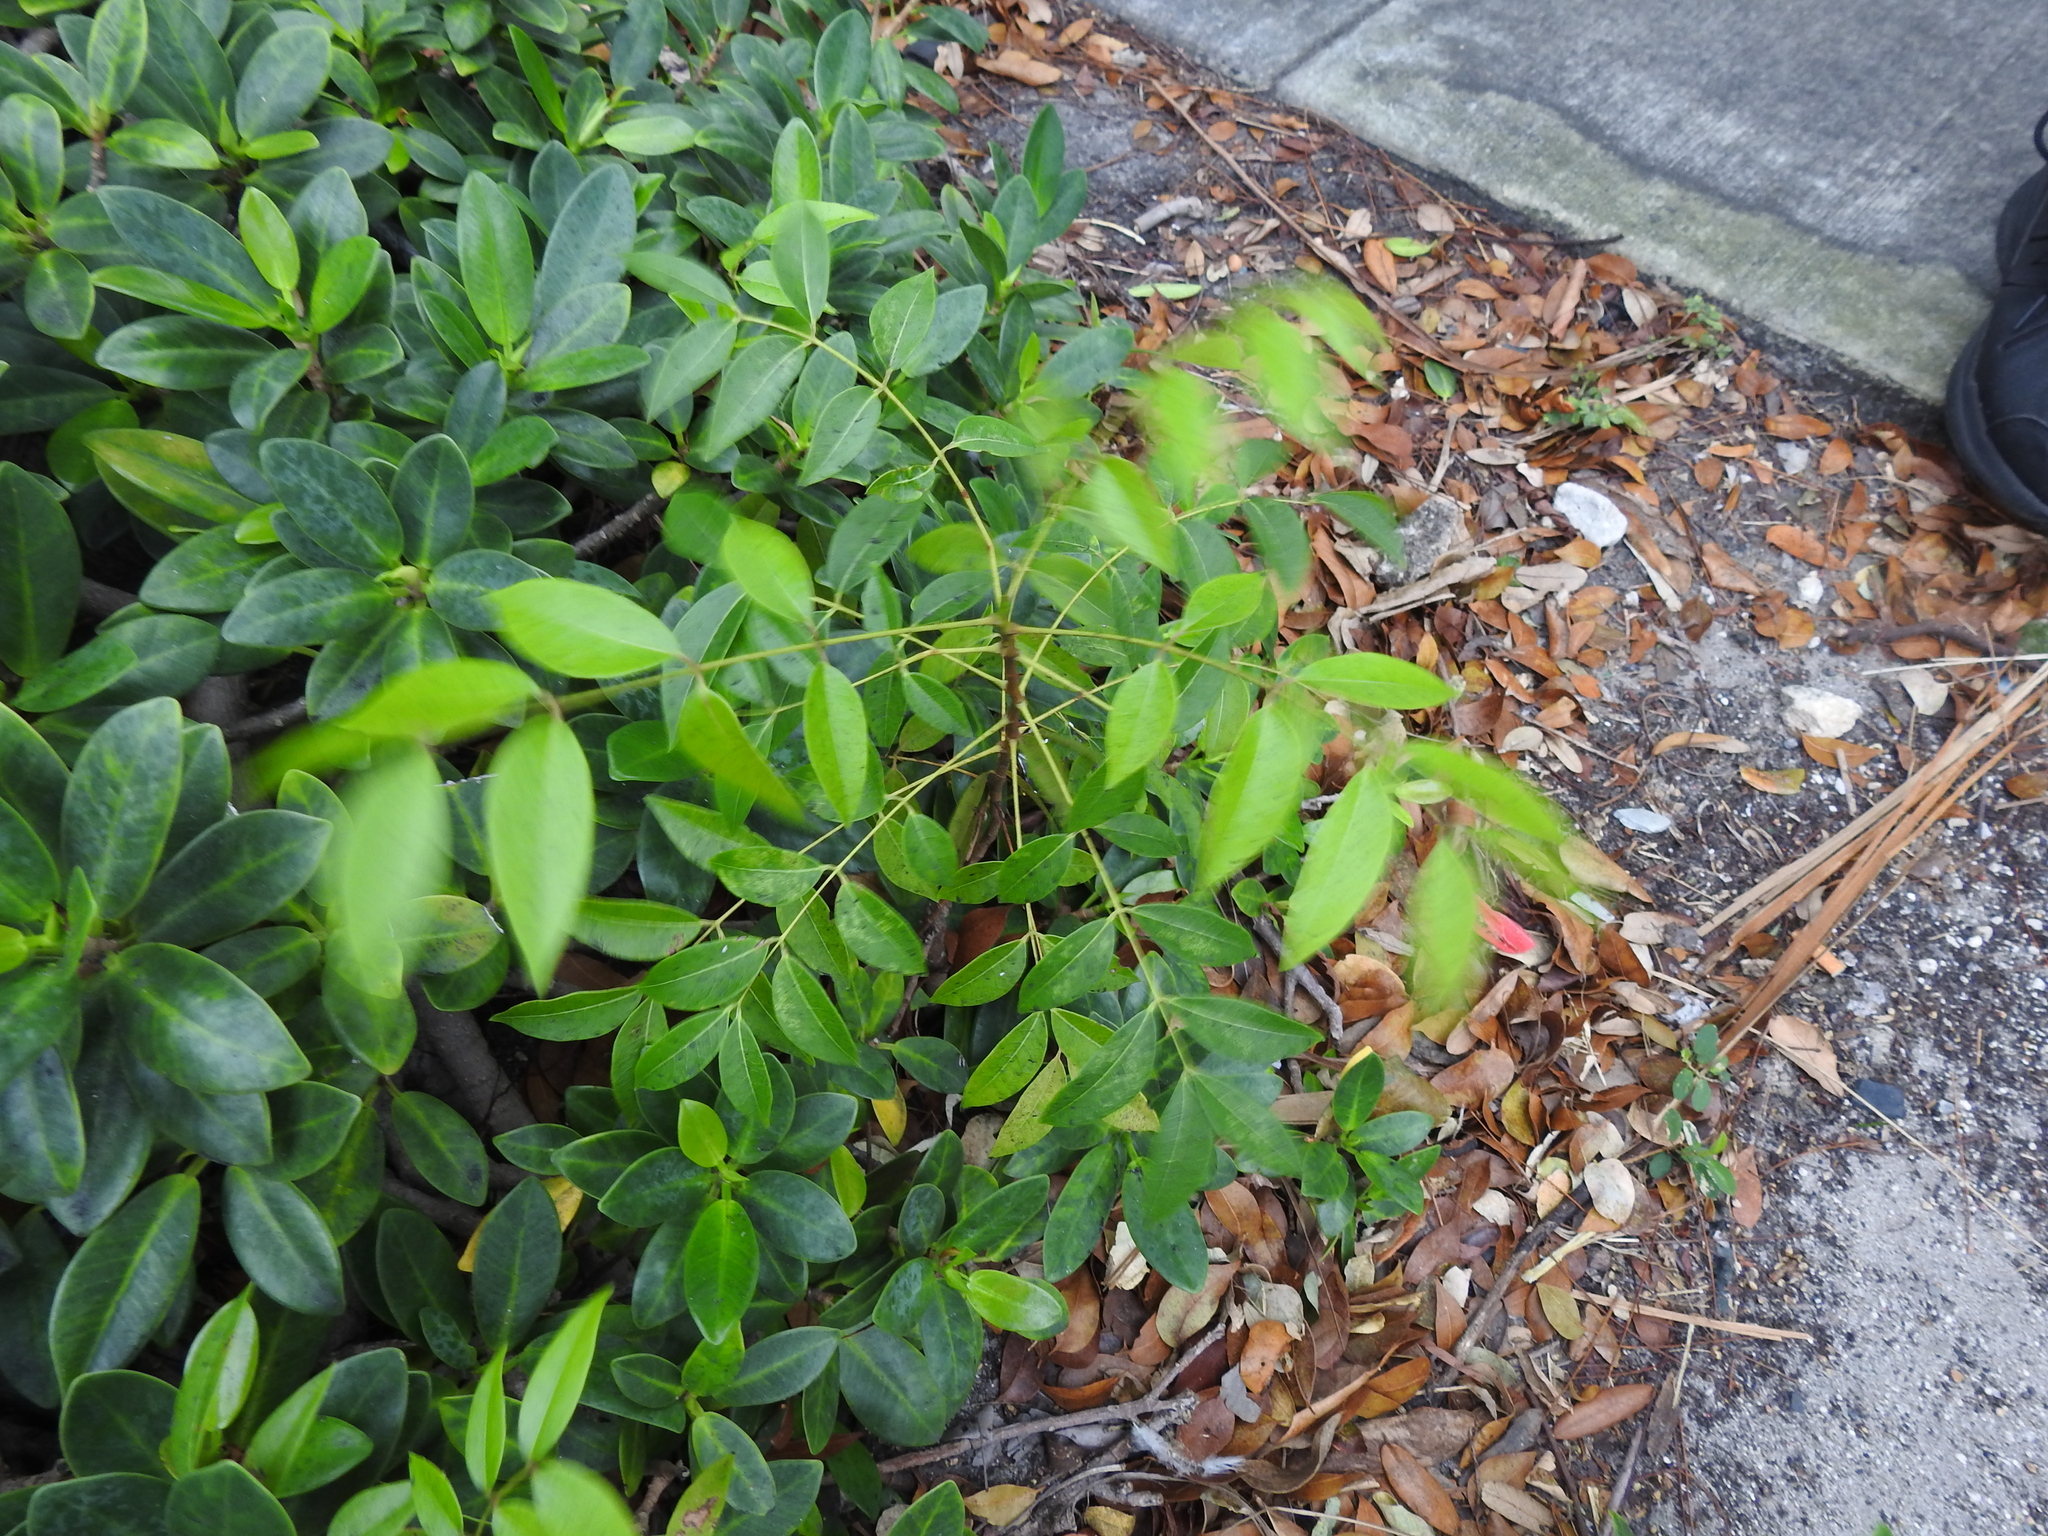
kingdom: Plantae
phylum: Tracheophyta
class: Magnoliopsida
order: Sapindales
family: Meliaceae
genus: Swietenia
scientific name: Swietenia mahagoni
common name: West indian mahogany
